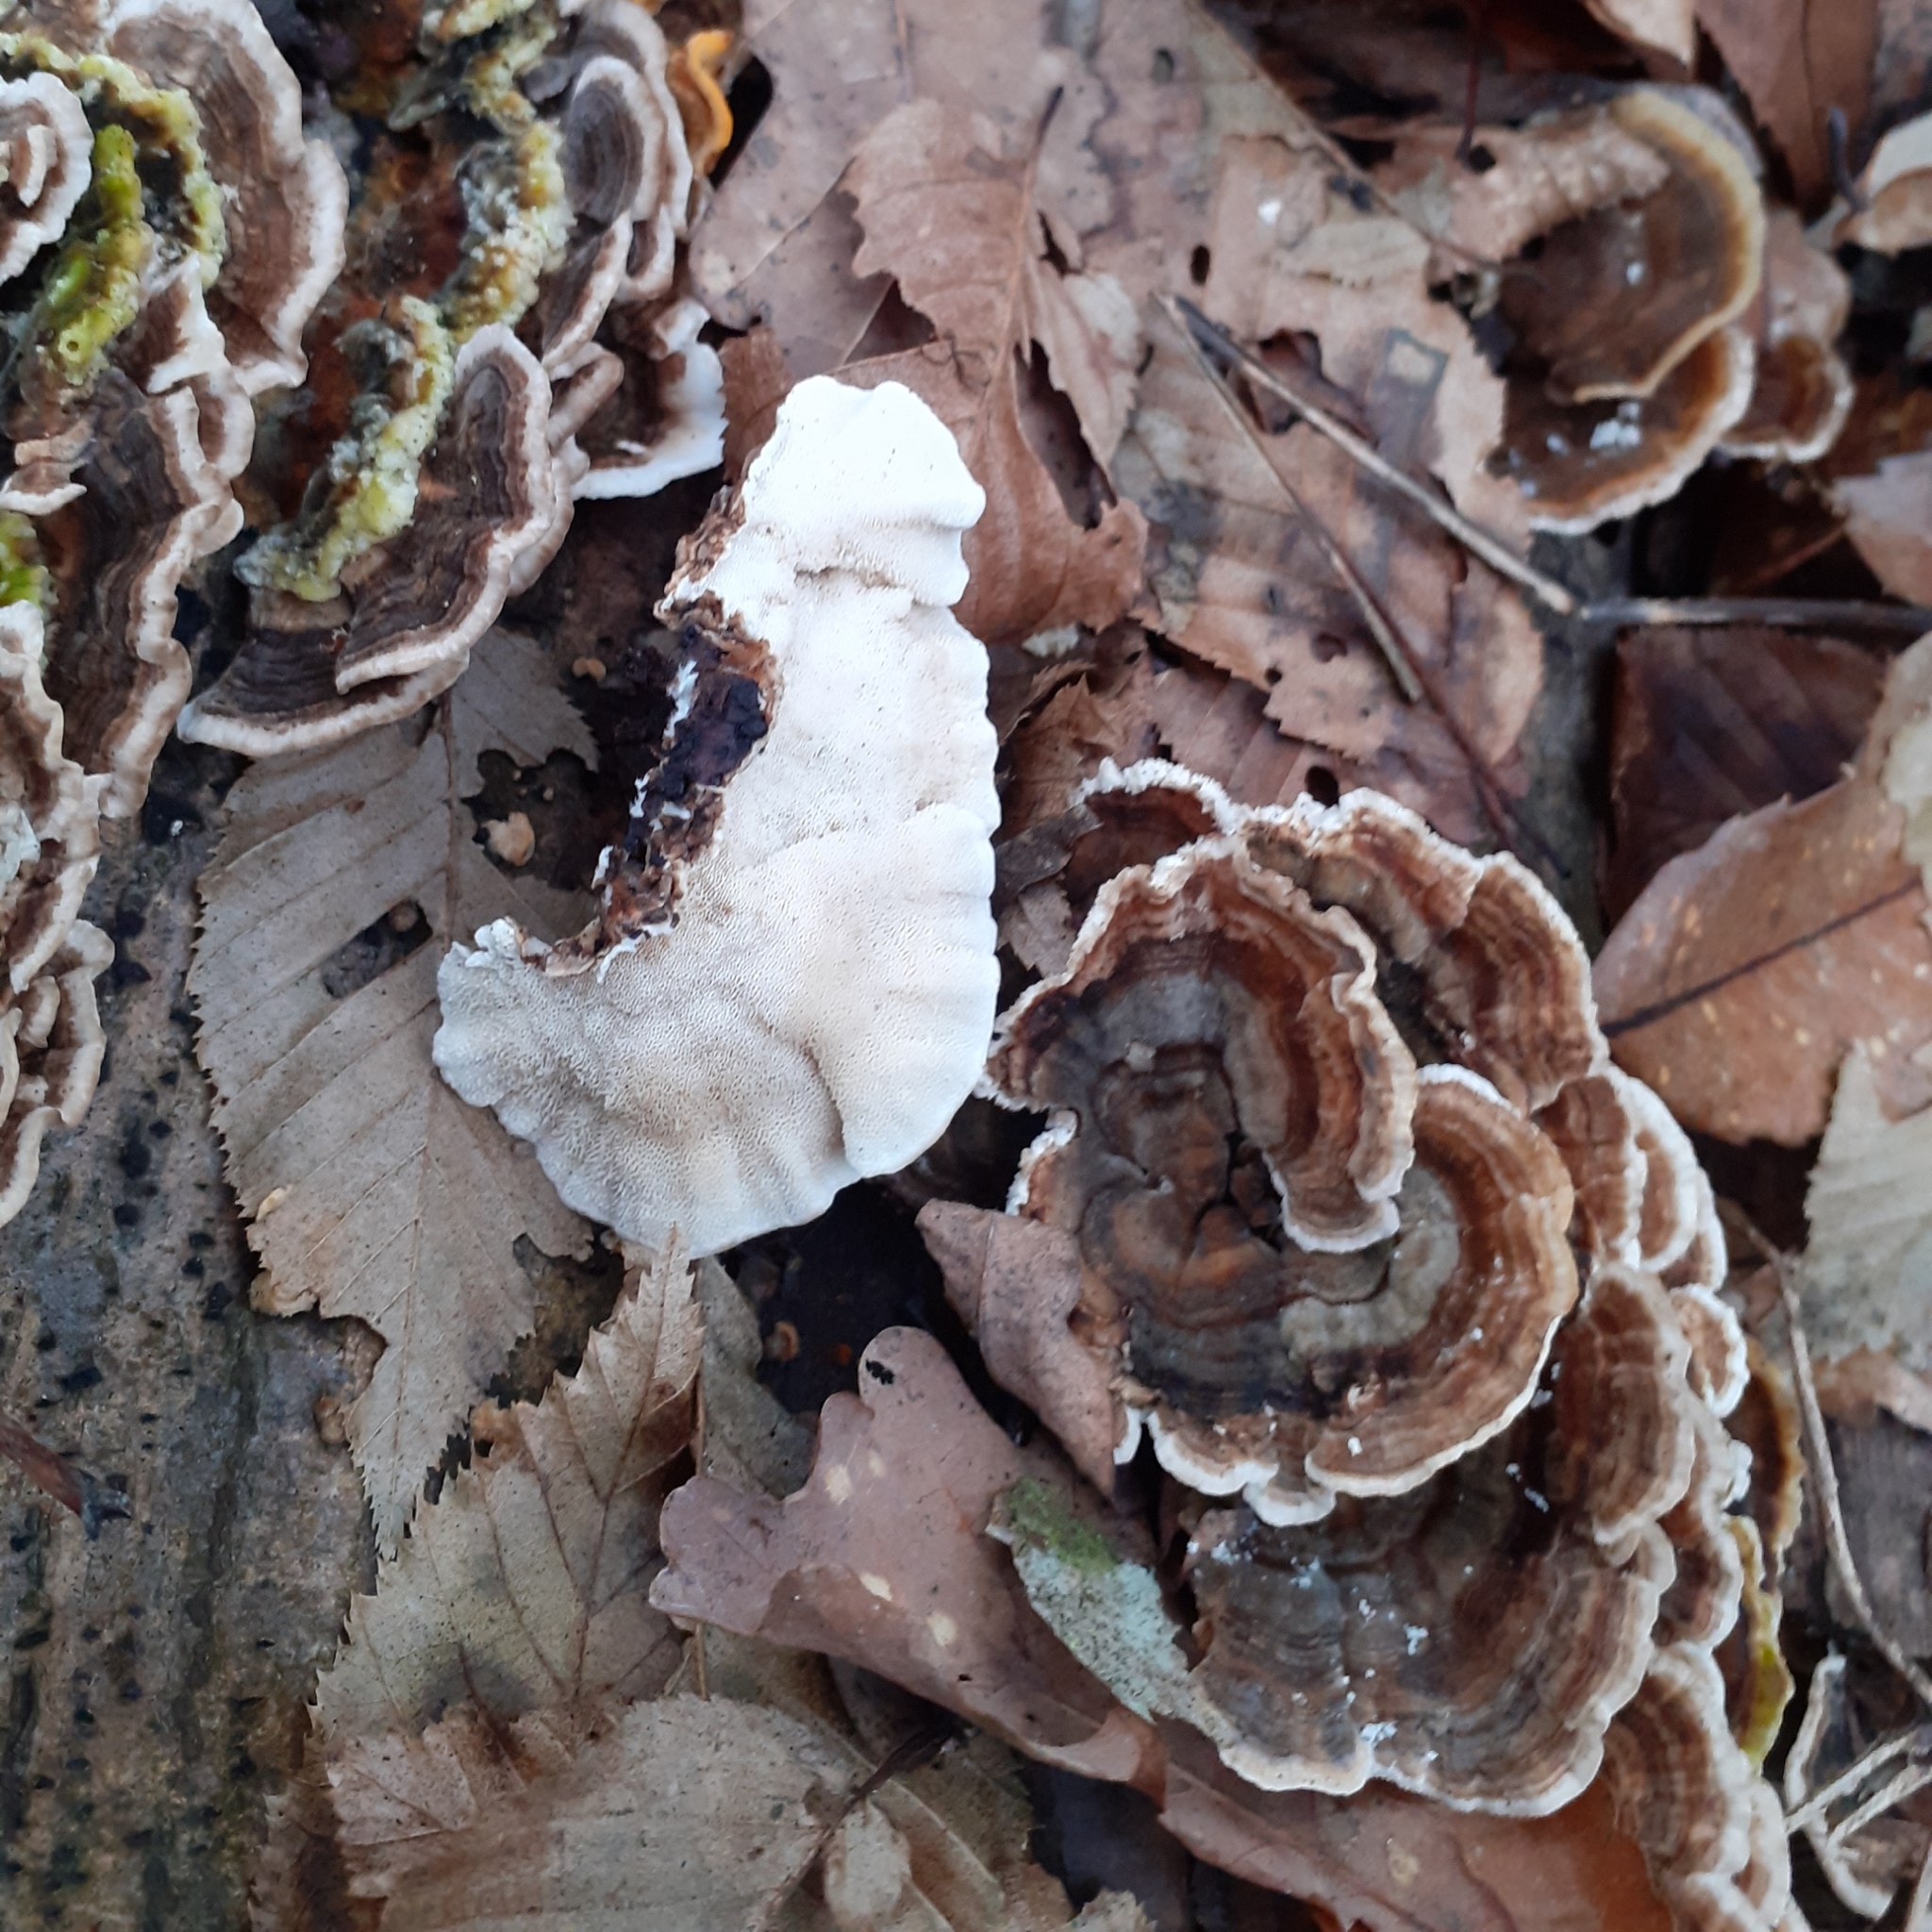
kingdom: Fungi
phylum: Basidiomycota
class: Agaricomycetes
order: Polyporales
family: Polyporaceae
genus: Trametes
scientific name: Trametes versicolor
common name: Turkeytail
